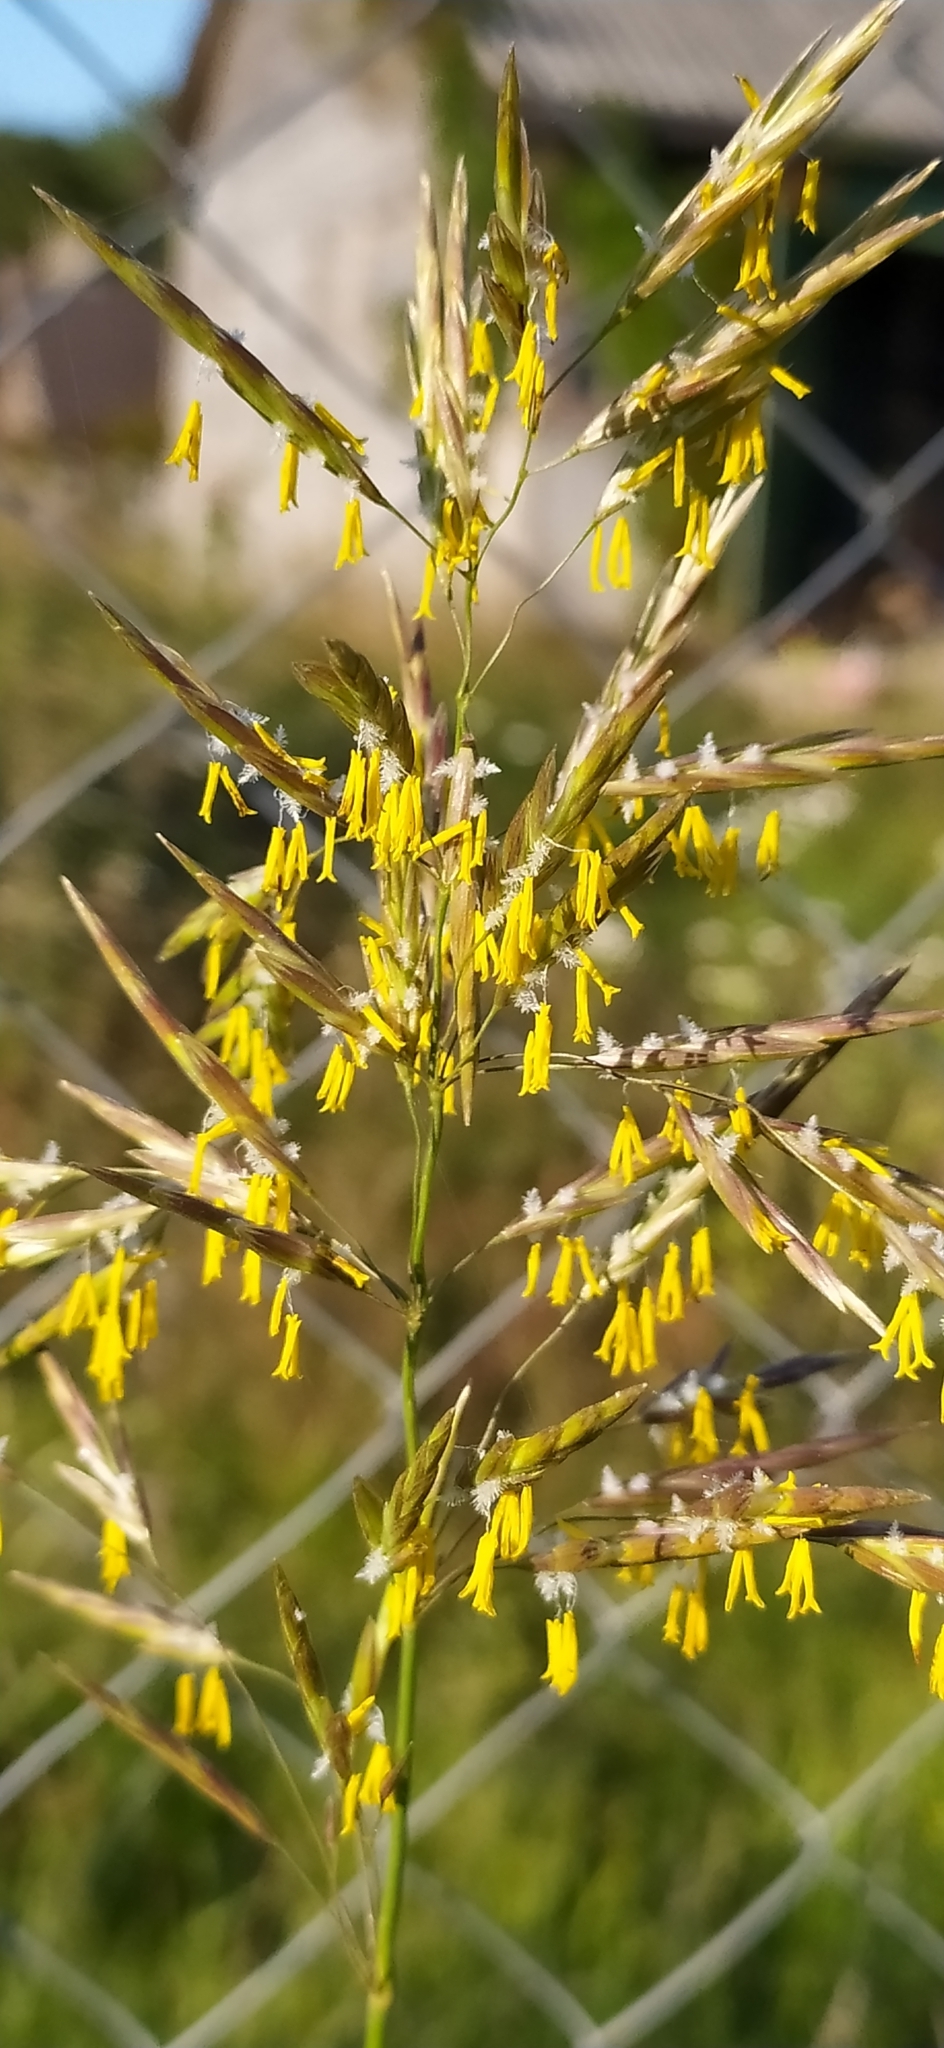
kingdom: Plantae
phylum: Tracheophyta
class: Liliopsida
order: Poales
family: Poaceae
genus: Bromus
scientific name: Bromus inermis
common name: Smooth brome
